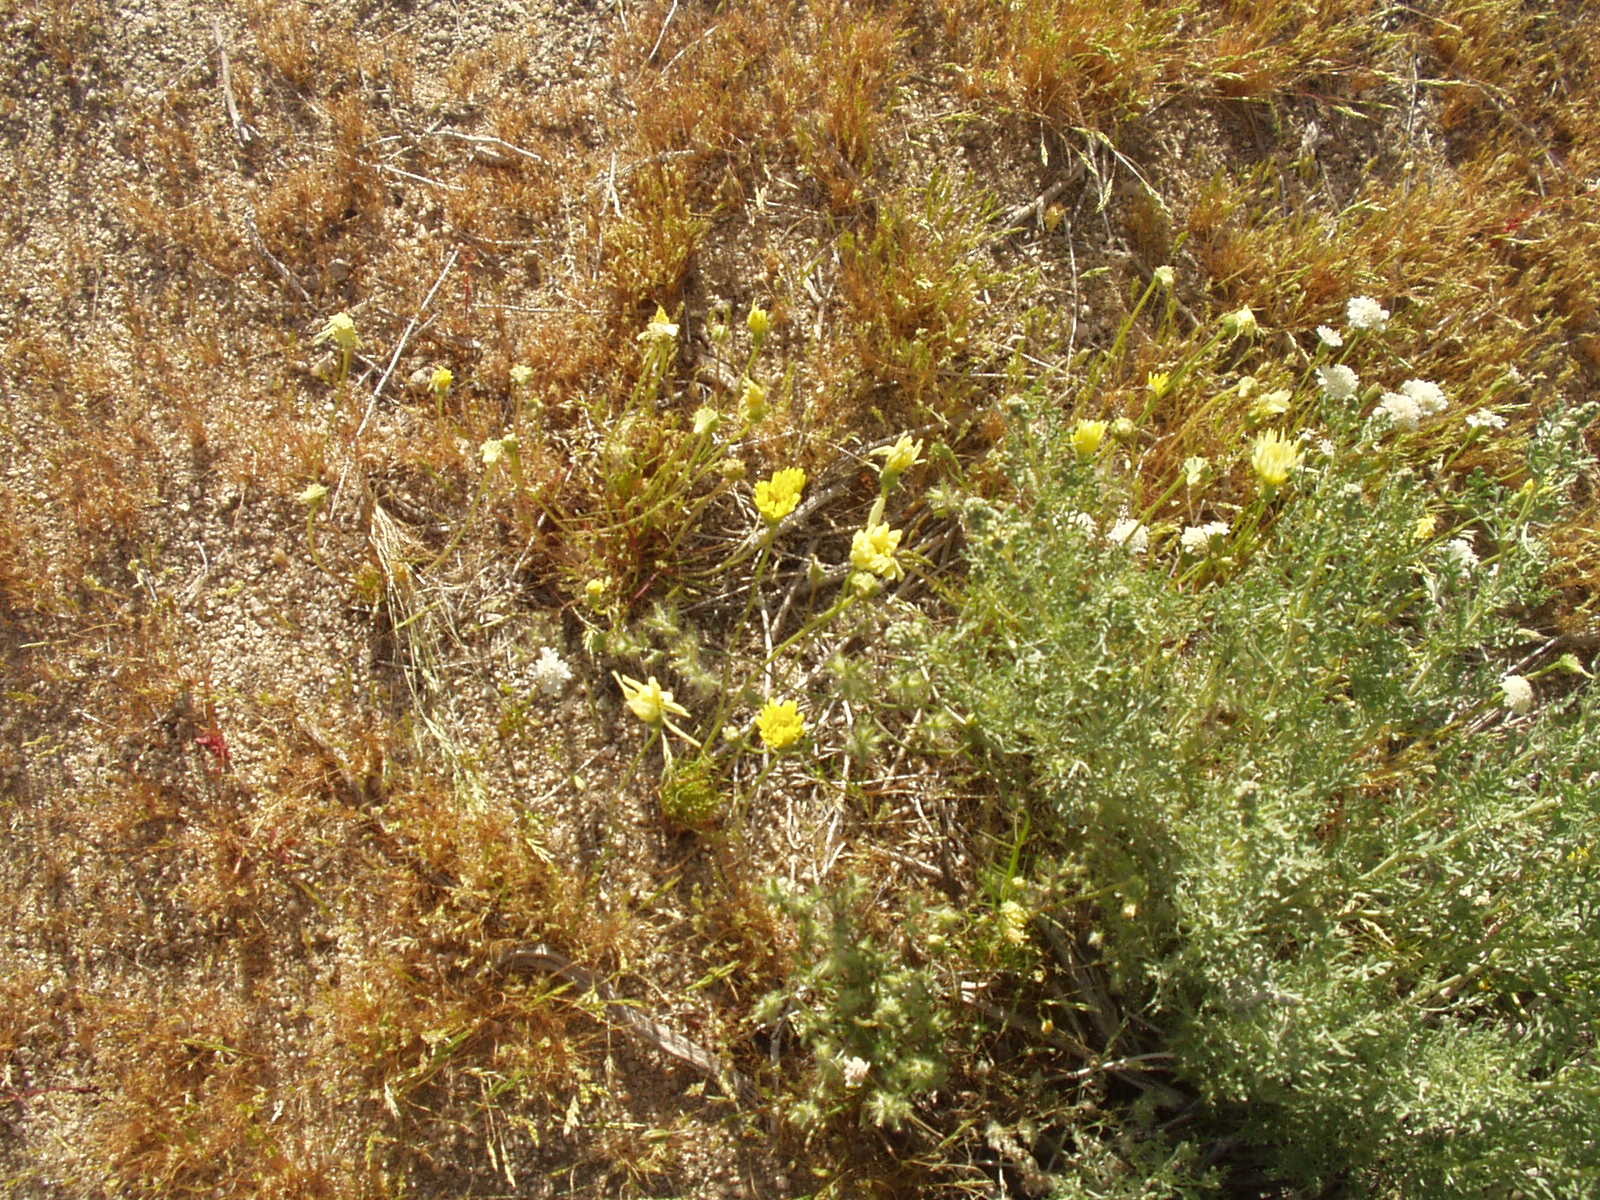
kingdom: Plantae
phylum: Tracheophyta
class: Magnoliopsida
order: Asterales
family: Asteraceae
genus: Chaenactis
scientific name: Chaenactis
